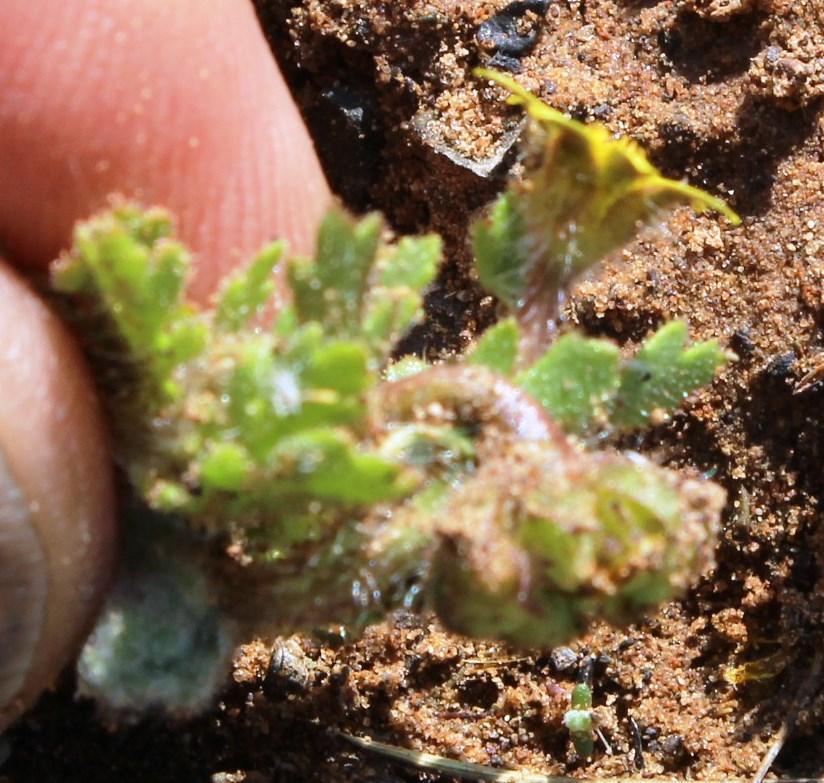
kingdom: Plantae
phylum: Tracheophyta
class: Magnoliopsida
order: Asterales
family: Asteraceae
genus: Osteospermum
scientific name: Osteospermum acanthospermum
